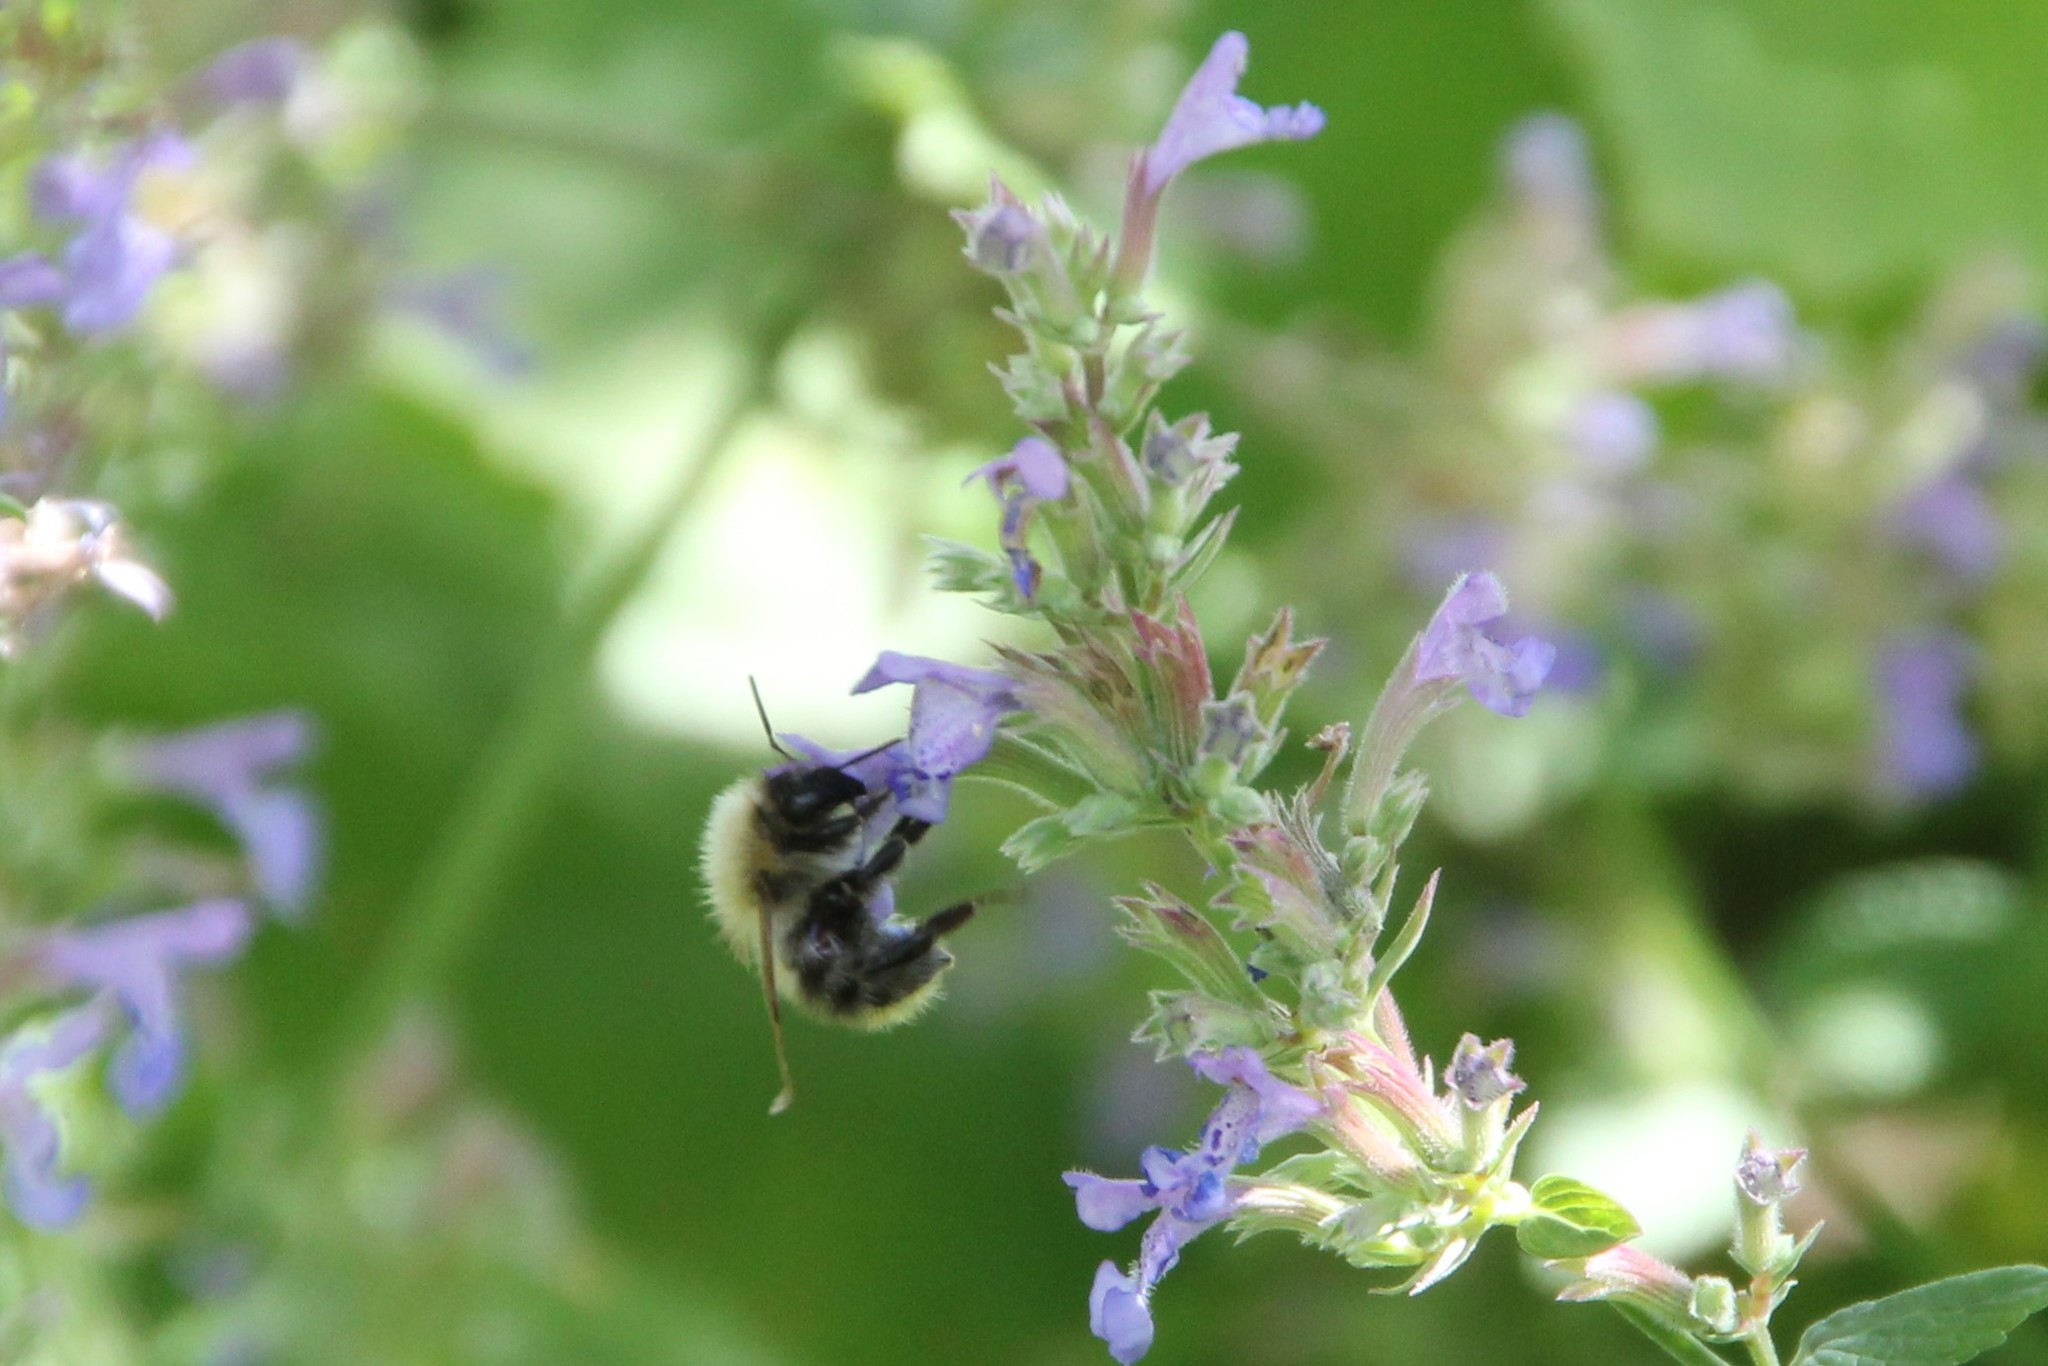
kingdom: Animalia
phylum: Arthropoda
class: Insecta
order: Hymenoptera
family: Apidae
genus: Bombus
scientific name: Bombus pascuorum
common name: Common carder bee
